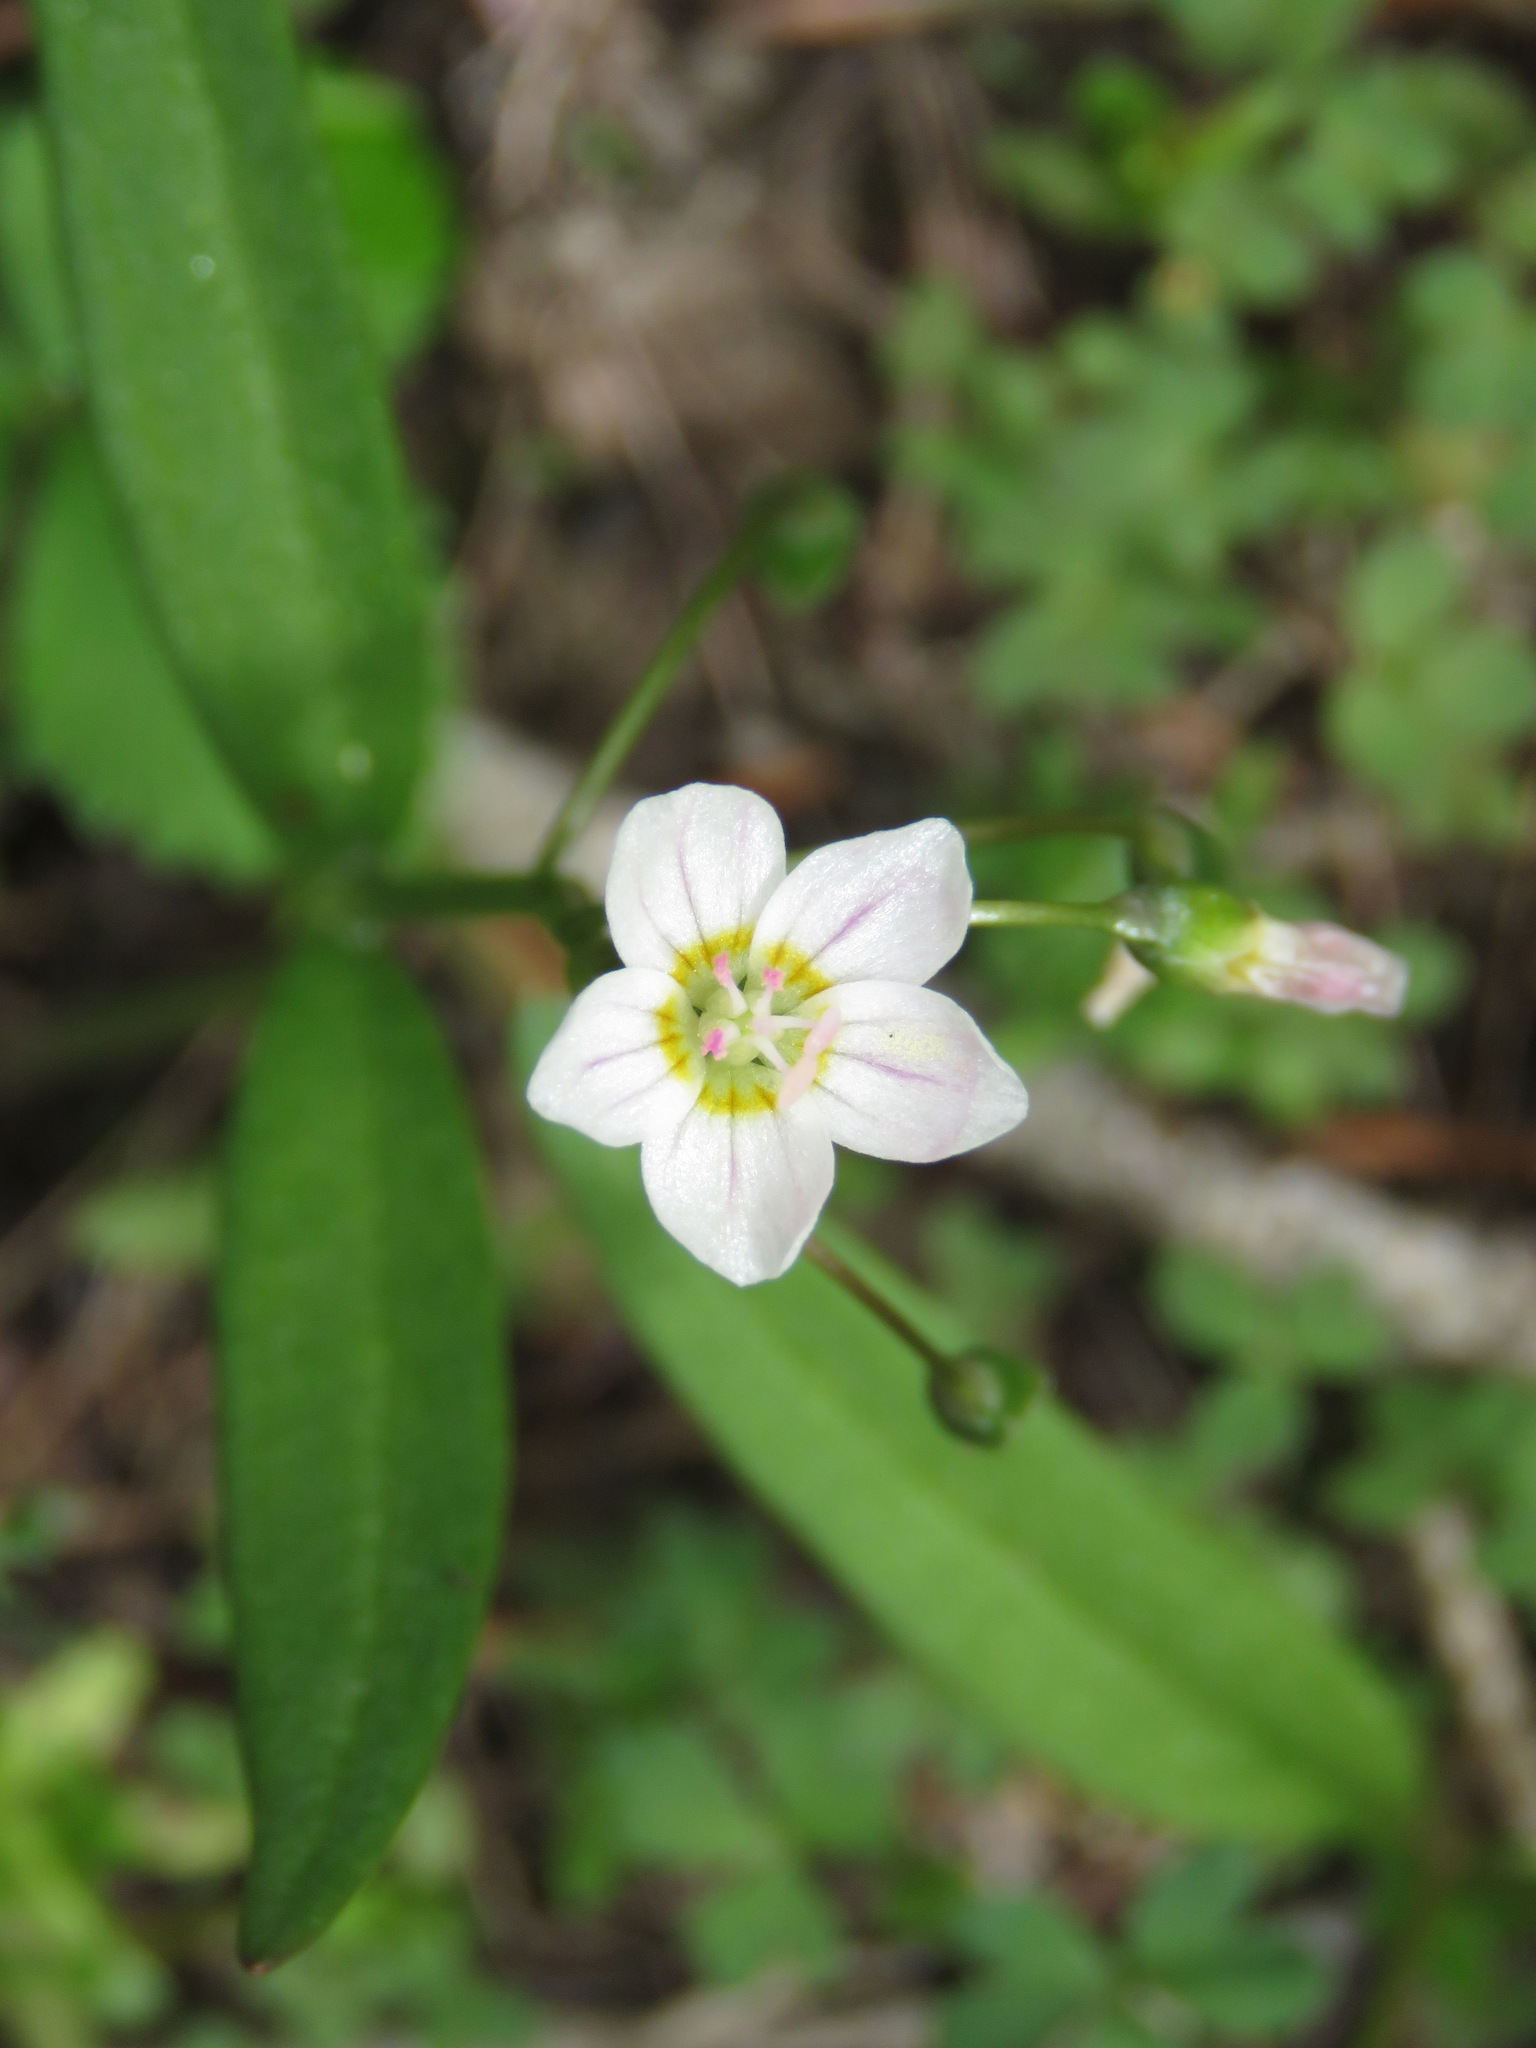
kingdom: Plantae
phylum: Tracheophyta
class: Magnoliopsida
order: Caryophyllales
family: Montiaceae
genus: Claytonia
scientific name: Claytonia lanceolata
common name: Western spring-beauty
